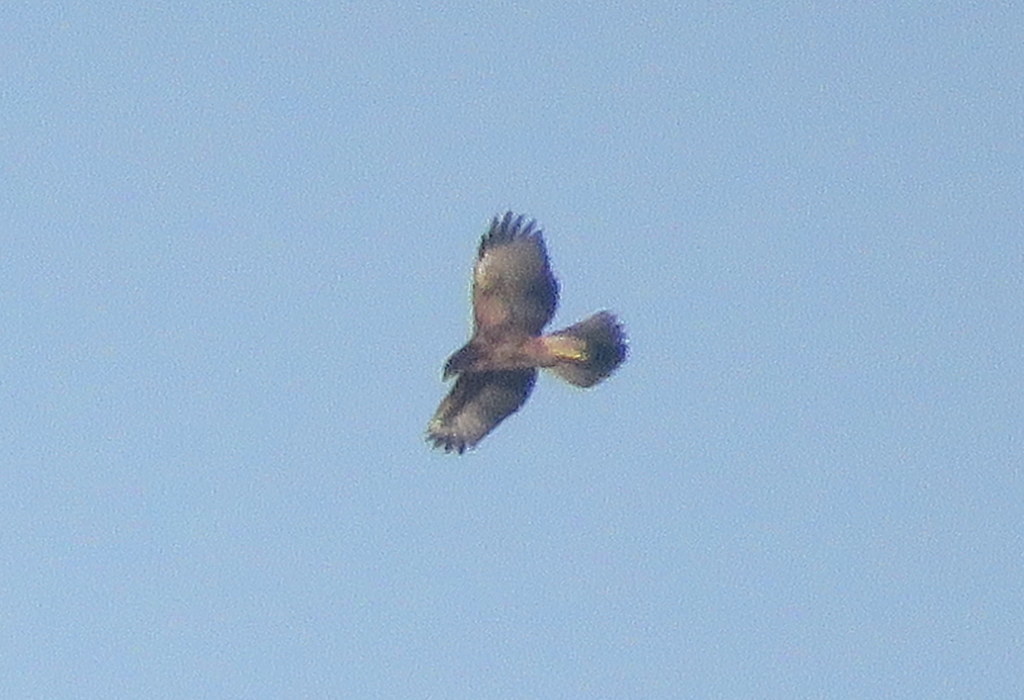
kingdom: Animalia
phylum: Chordata
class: Aves
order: Accipitriformes
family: Accipitridae
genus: Parabuteo
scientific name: Parabuteo unicinctus
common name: Harris's hawk
